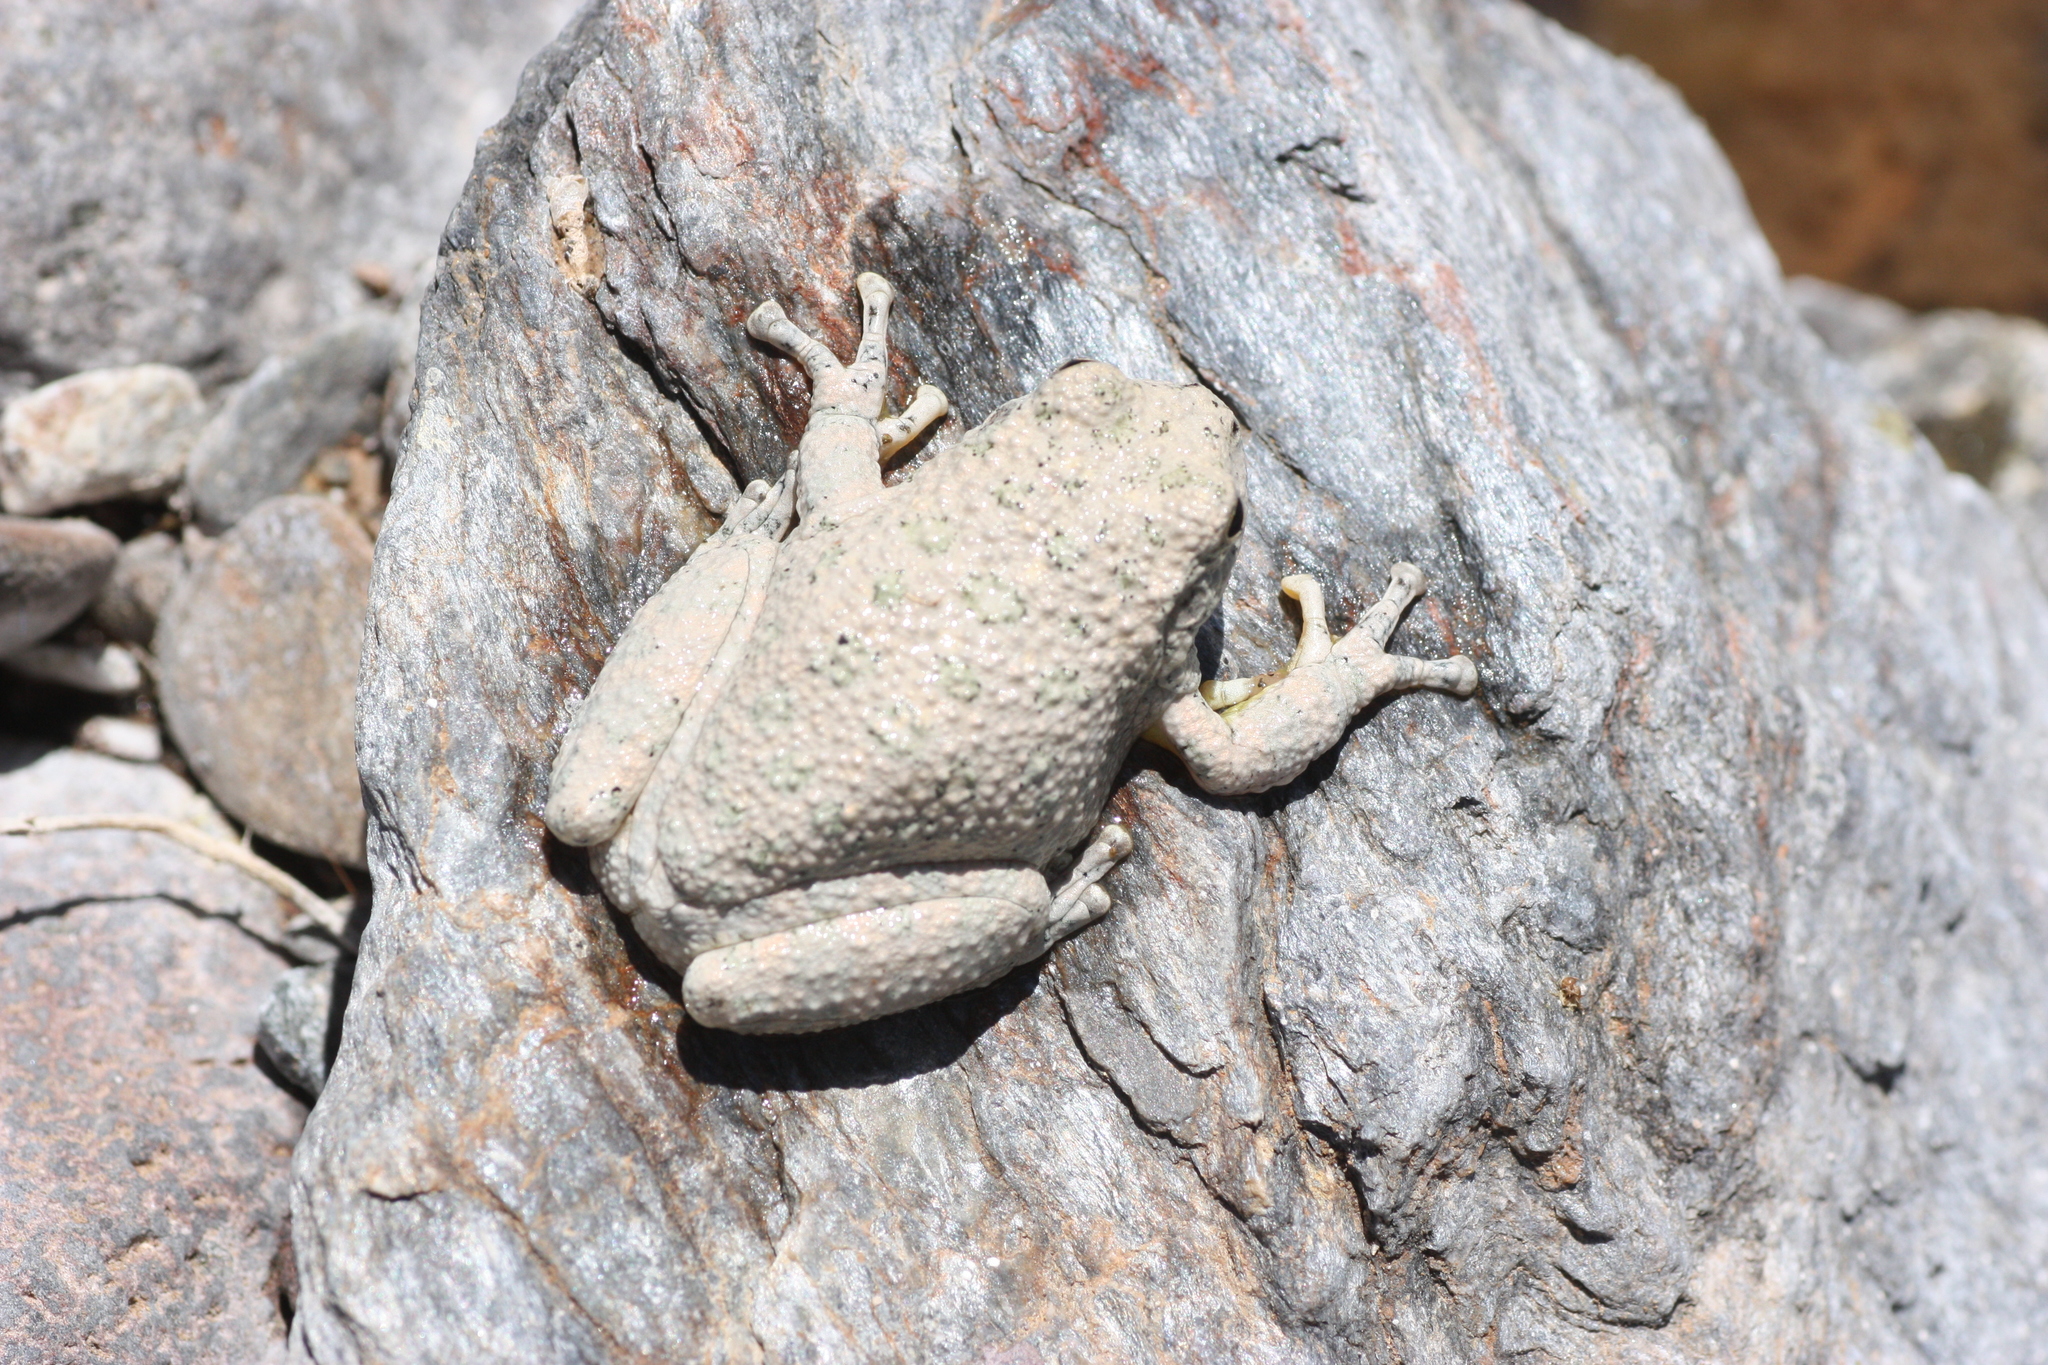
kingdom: Animalia
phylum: Chordata
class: Amphibia
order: Anura
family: Hylidae
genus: Dryophytes
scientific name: Dryophytes arenicolor
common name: Canyon treefrog
